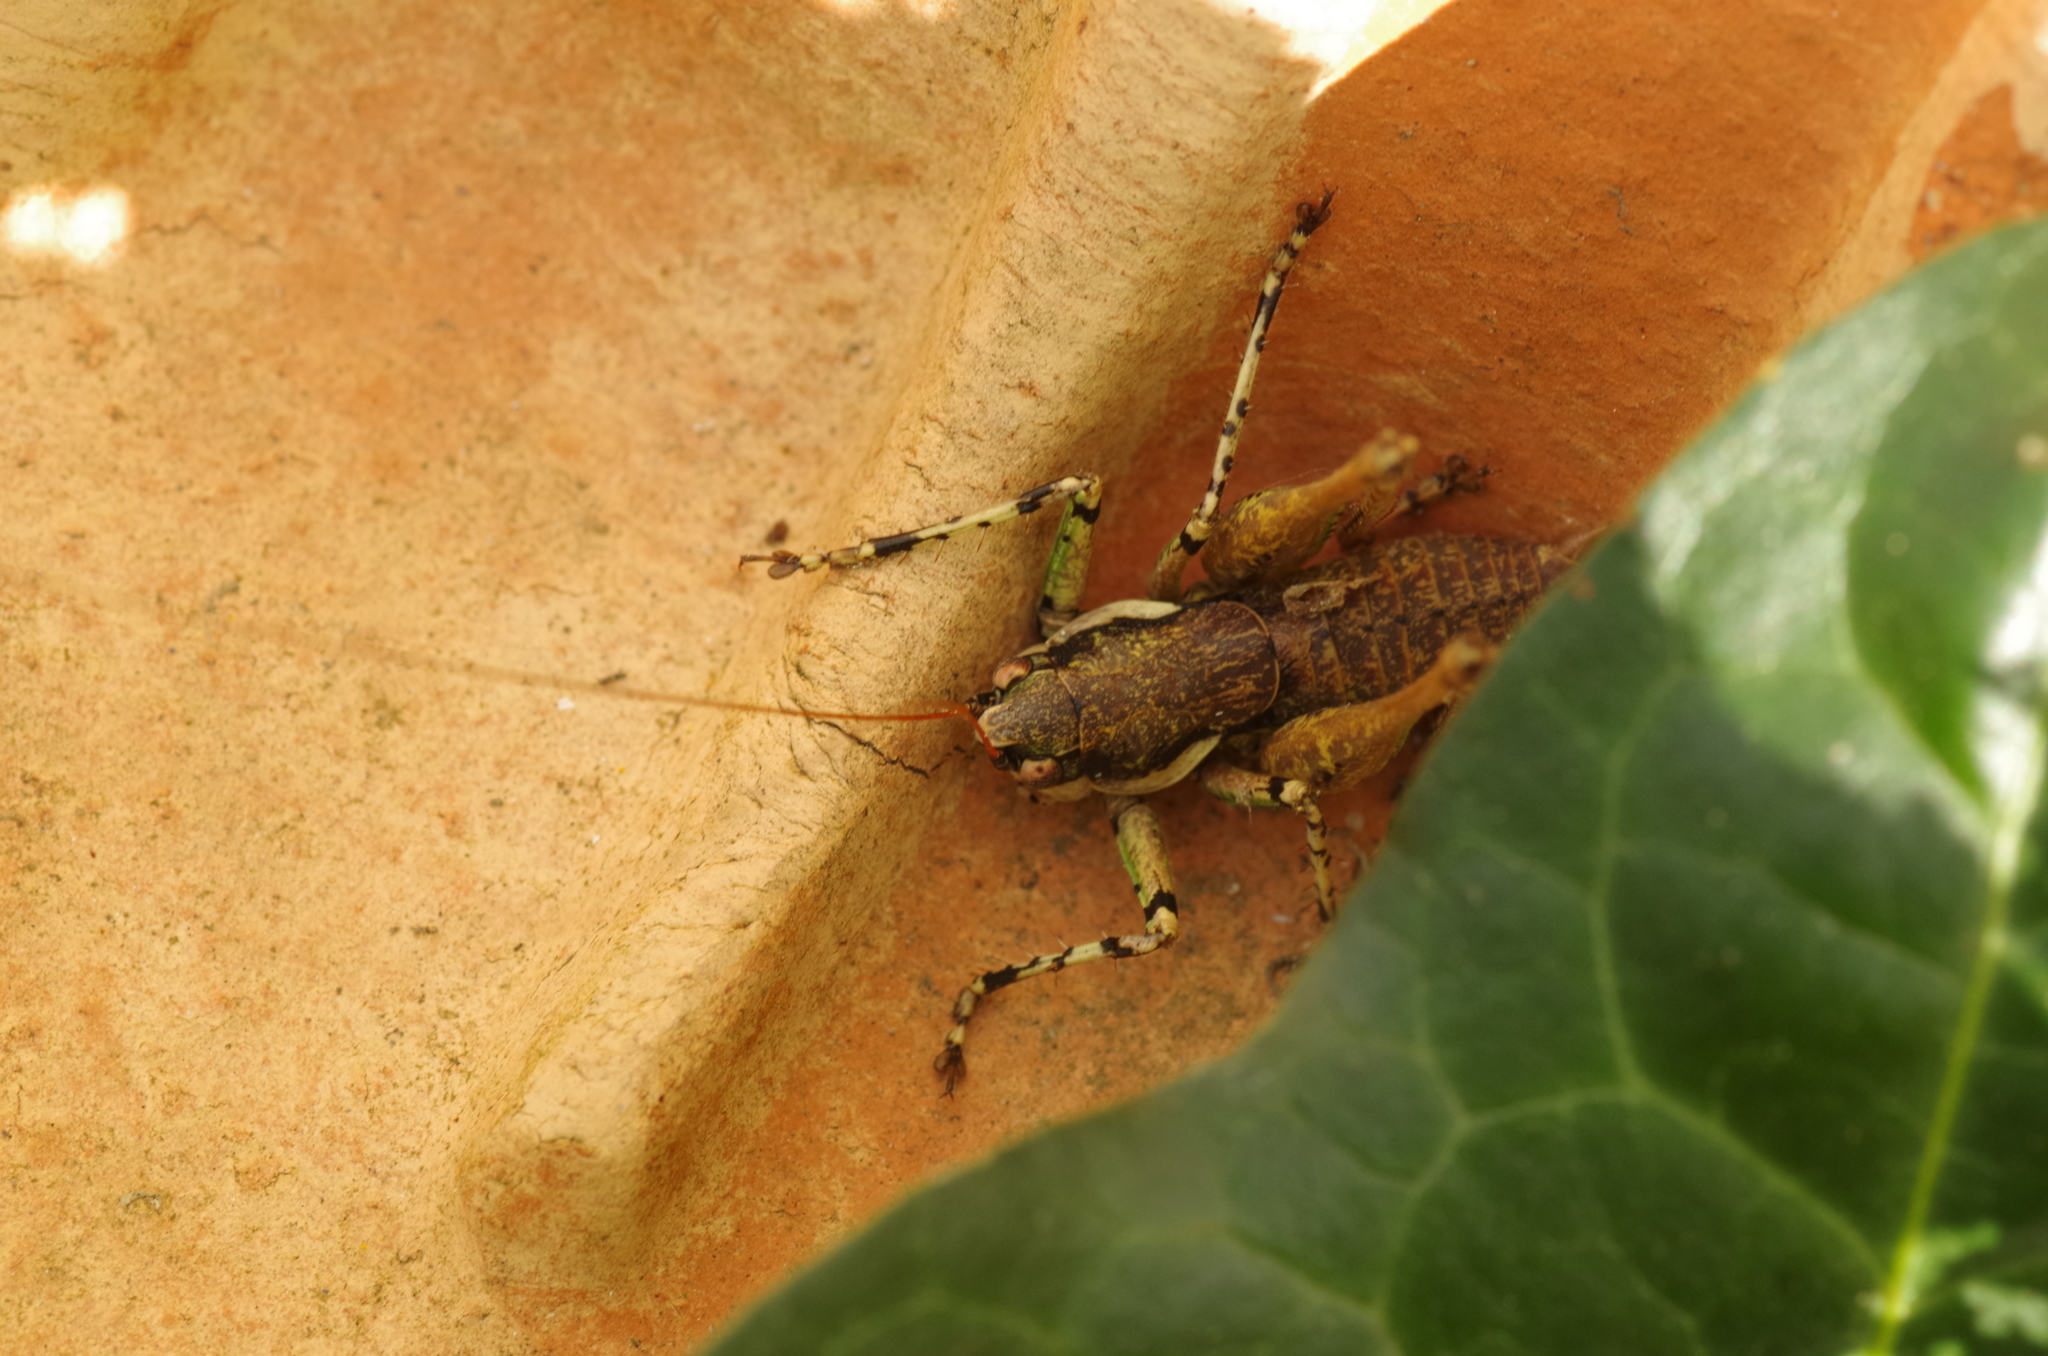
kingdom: Animalia
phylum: Arthropoda
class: Insecta
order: Orthoptera
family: Tettigoniidae
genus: Rhacocleis
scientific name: Rhacocleis annulata
